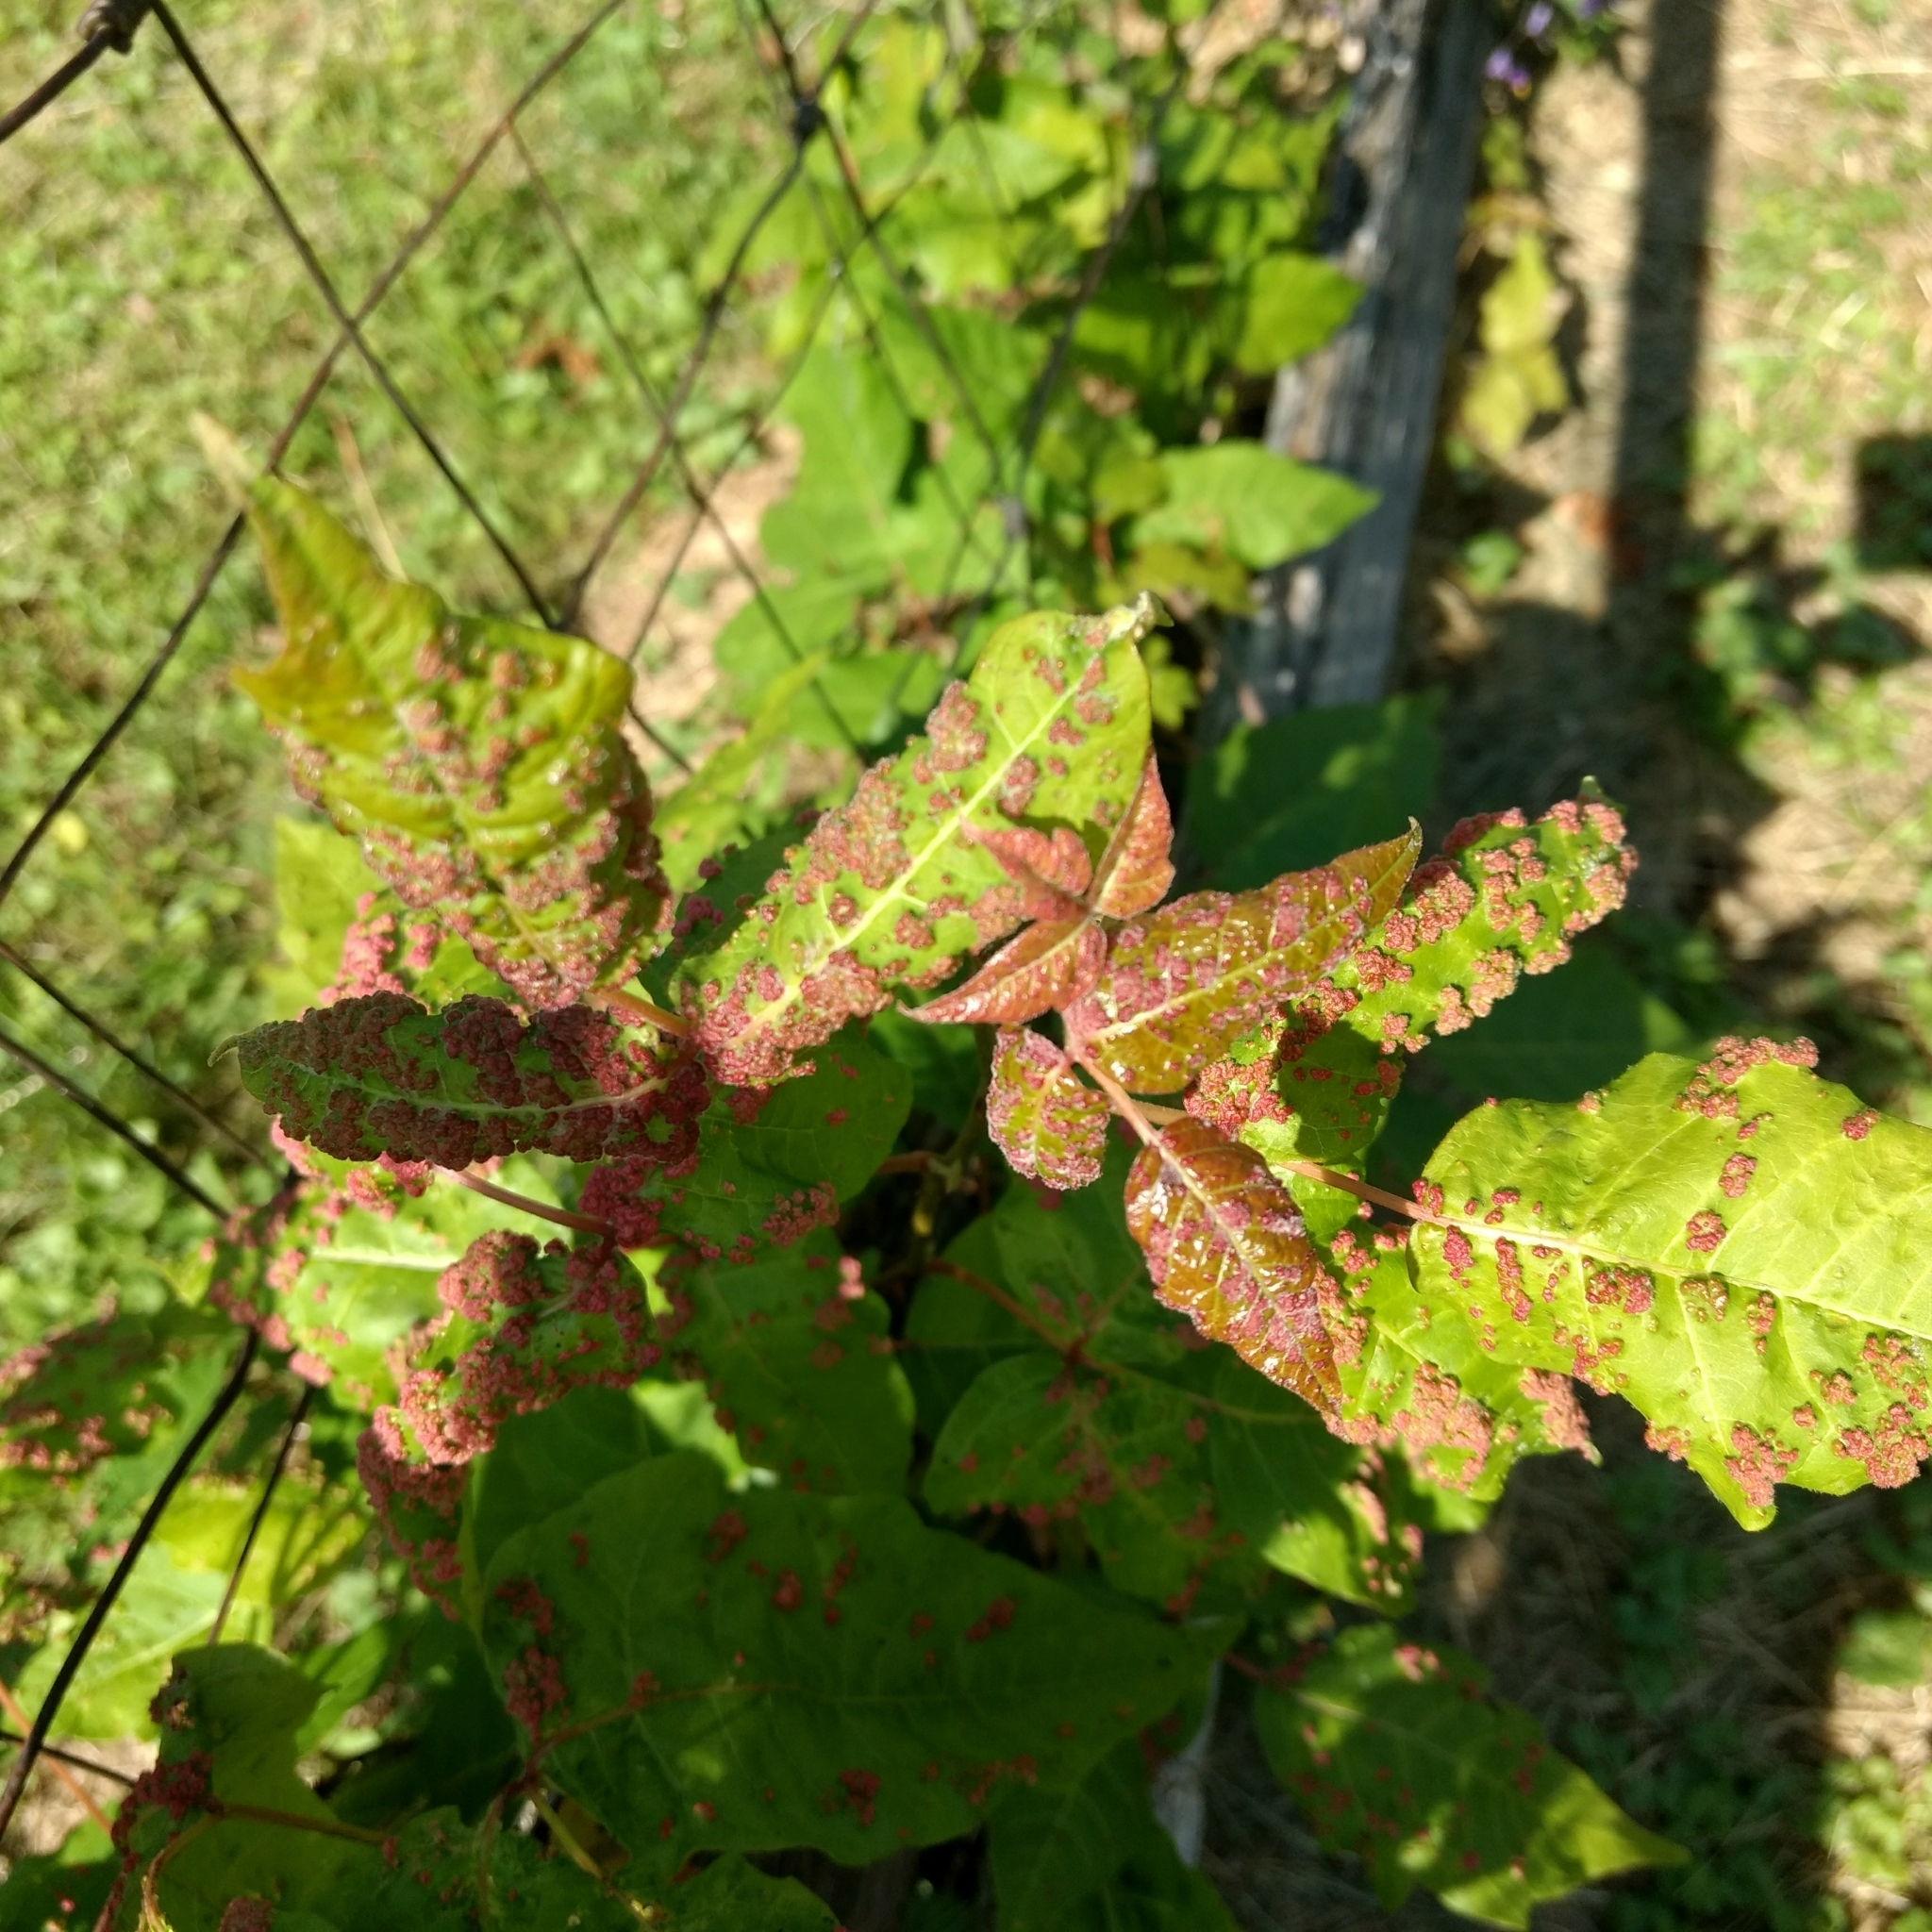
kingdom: Animalia
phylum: Arthropoda
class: Arachnida
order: Trombidiformes
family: Eriophyidae
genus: Aculops
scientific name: Aculops
